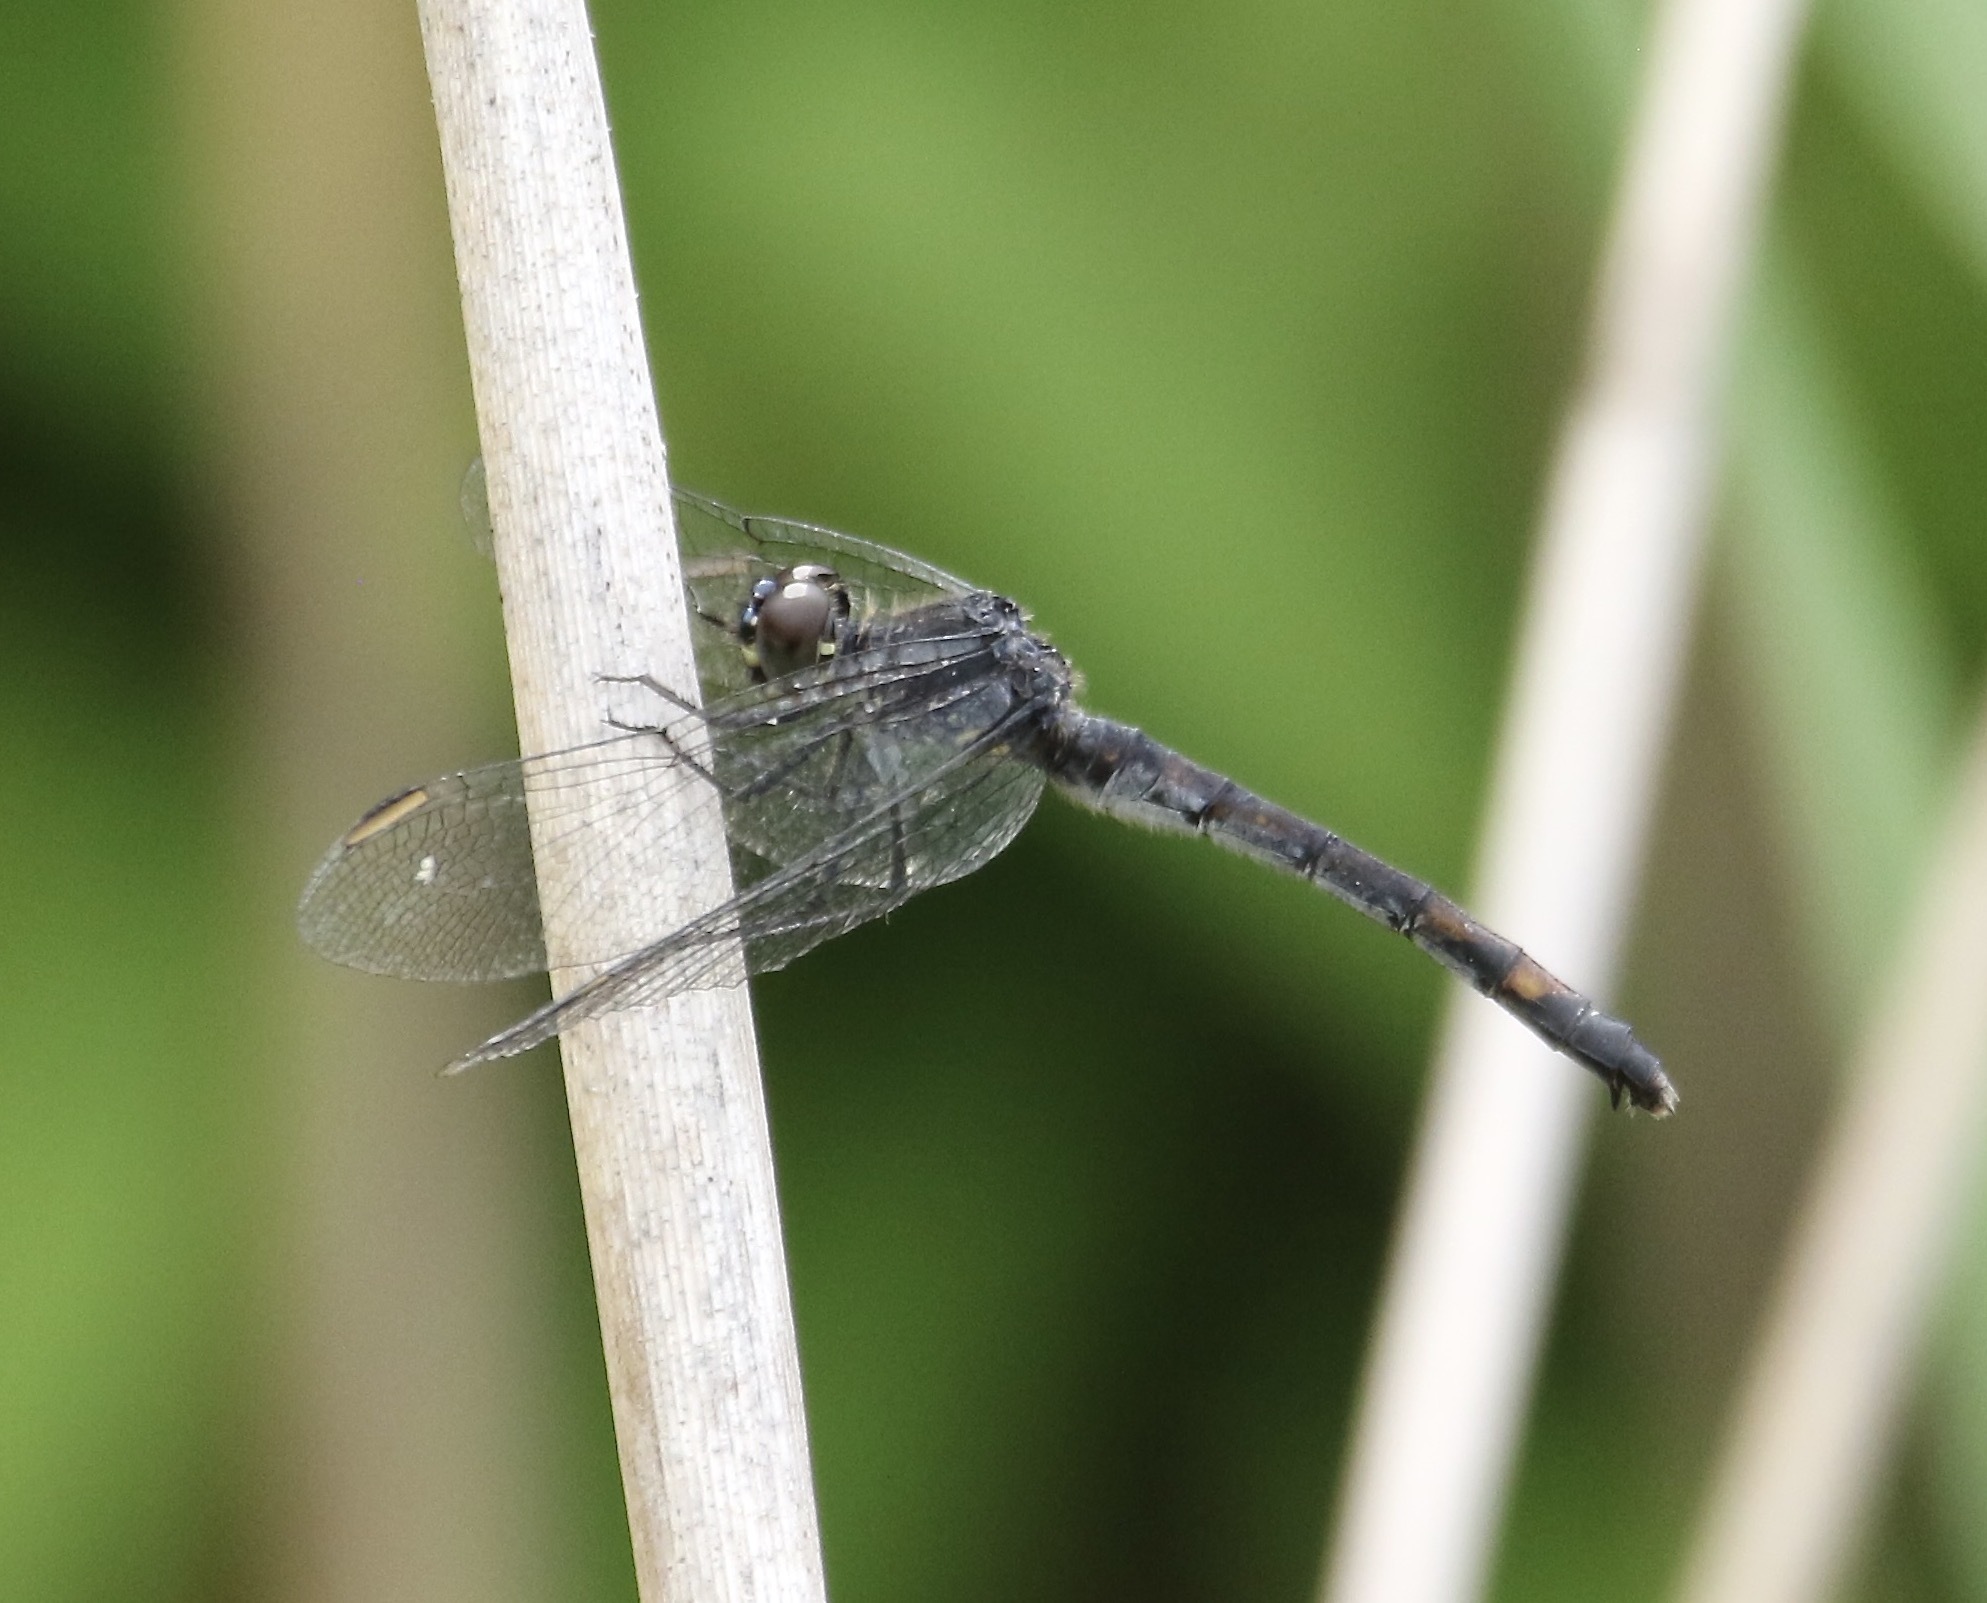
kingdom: Animalia
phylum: Arthropoda
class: Insecta
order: Odonata
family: Libellulidae
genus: Erythrodiplax
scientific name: Erythrodiplax berenice
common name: Seaside dragonlet
